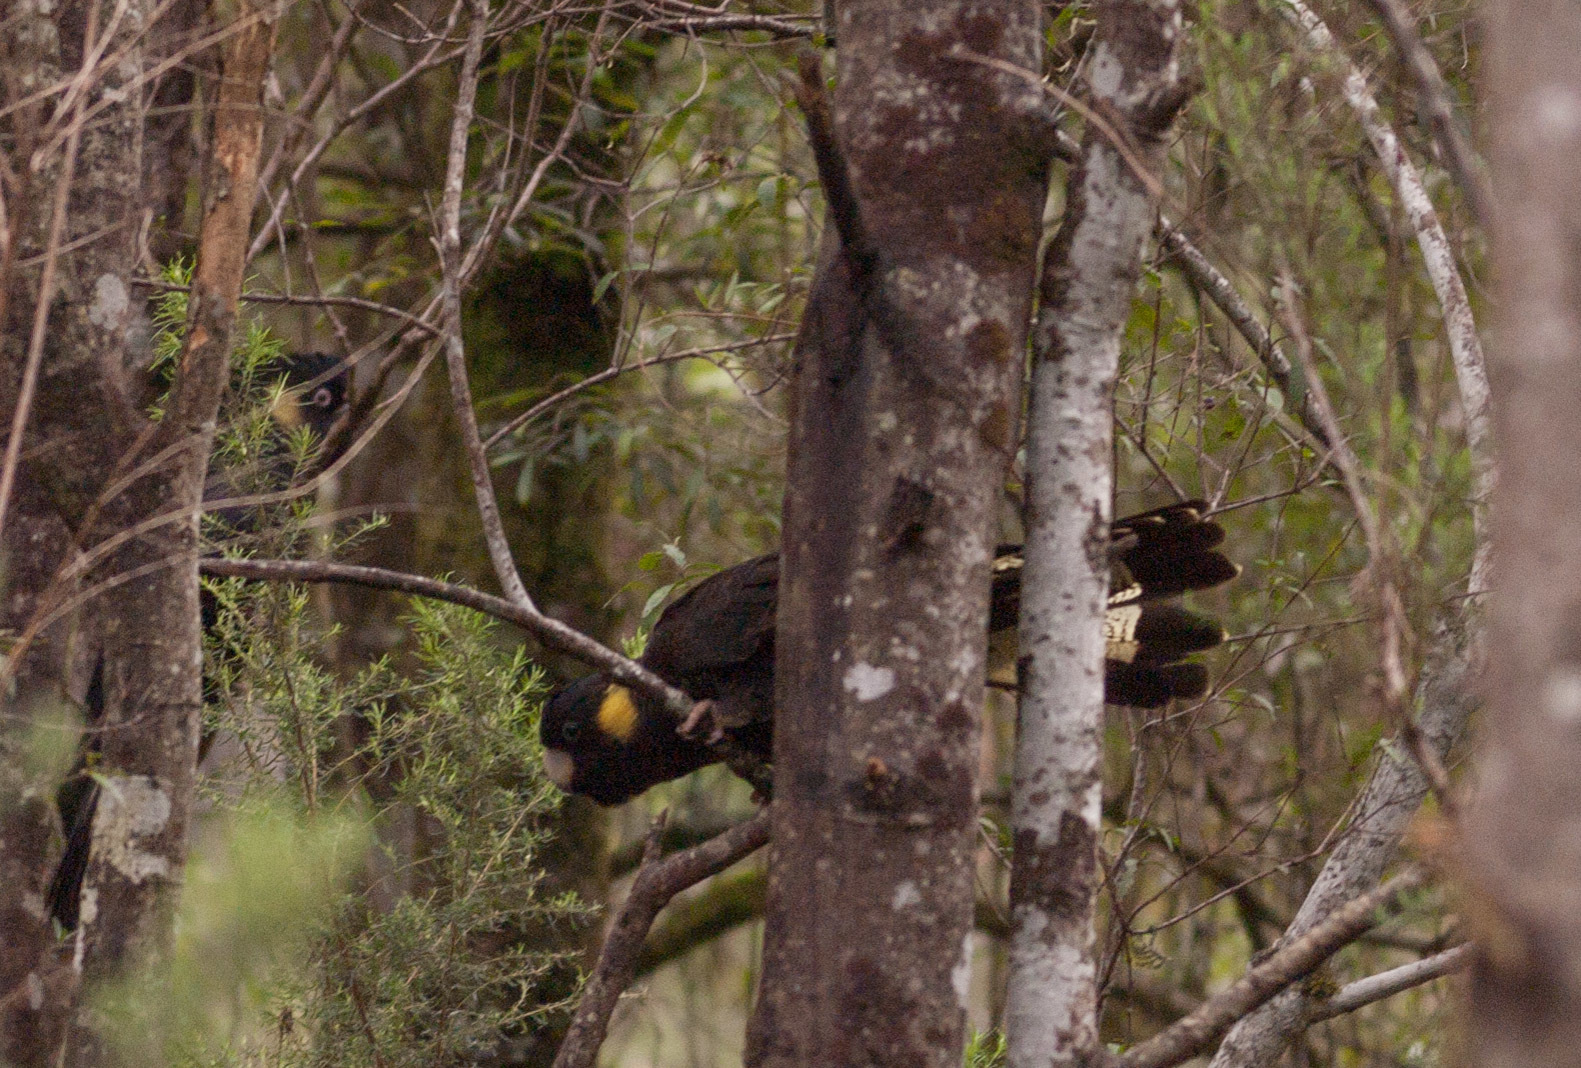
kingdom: Animalia
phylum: Chordata
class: Aves
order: Psittaciformes
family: Cacatuidae
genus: Zanda
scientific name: Zanda funerea
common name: Yellow-tailed black-cockatoo
